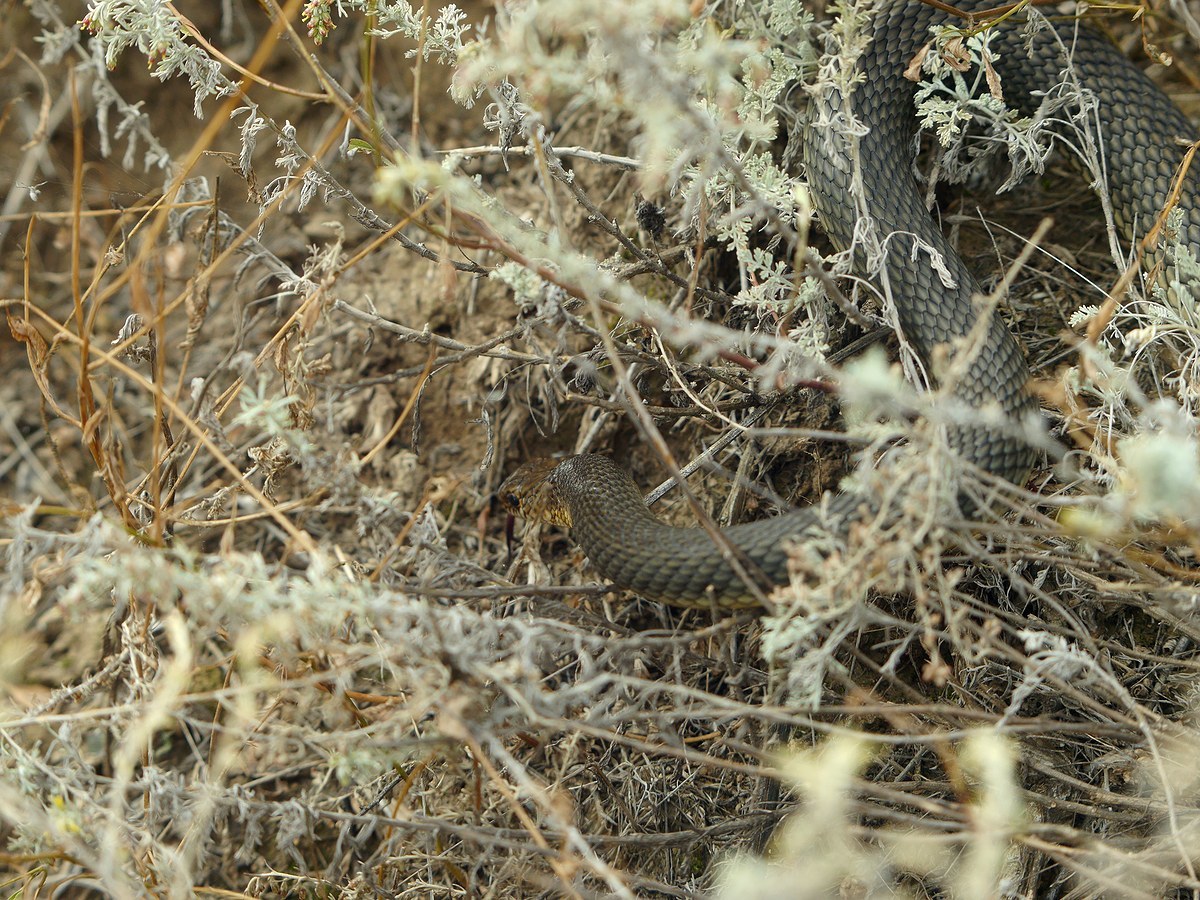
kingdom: Animalia
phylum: Chordata
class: Squamata
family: Colubridae
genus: Dolichophis
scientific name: Dolichophis caspius
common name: Large whip snake
